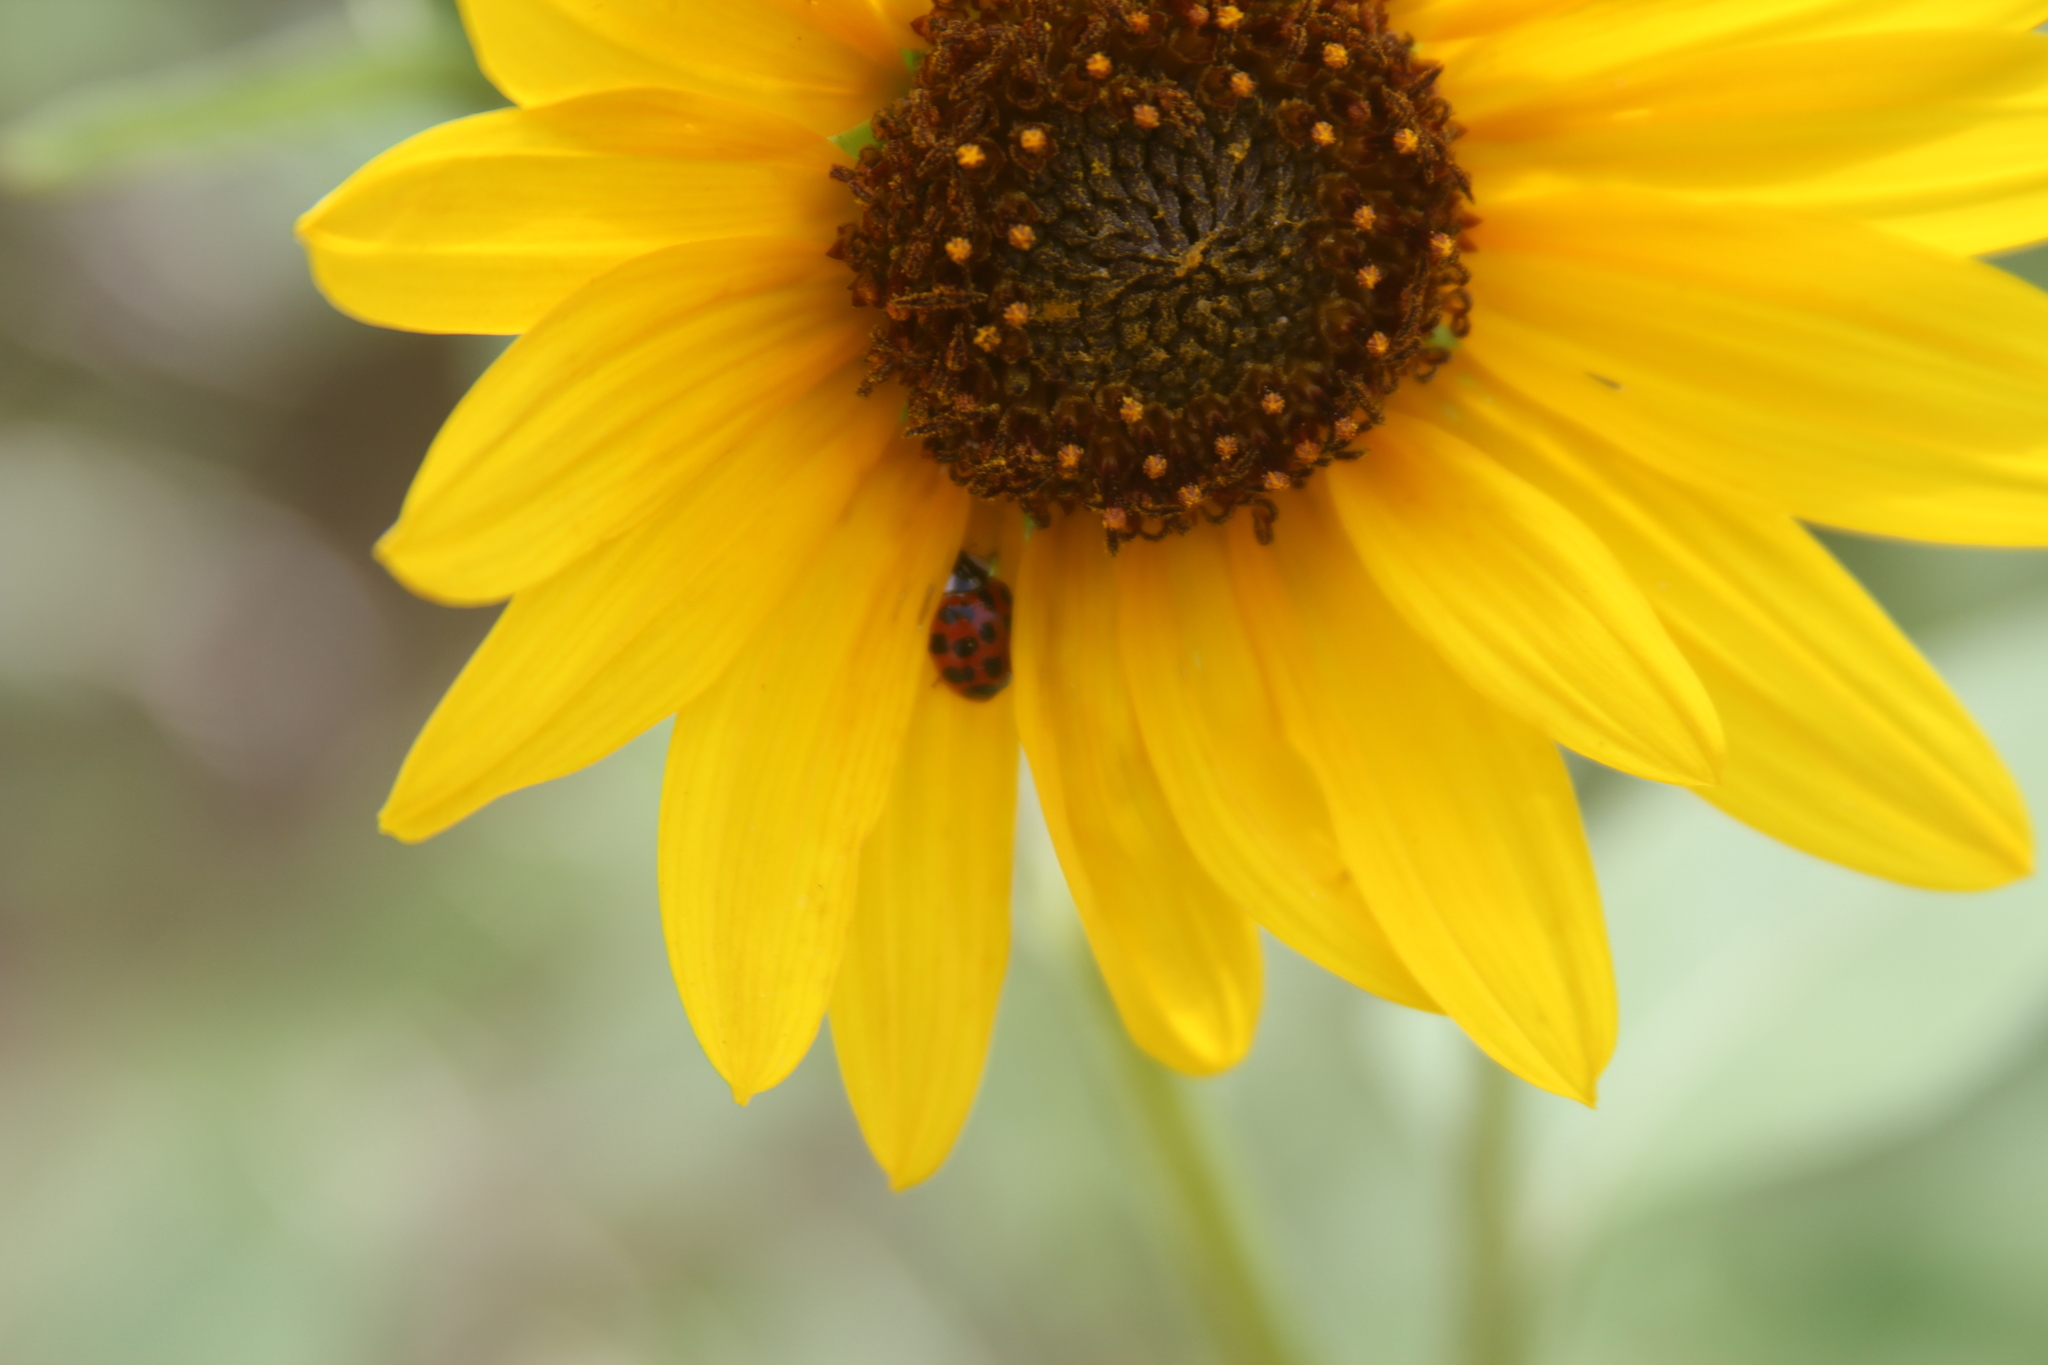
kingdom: Animalia
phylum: Arthropoda
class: Insecta
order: Coleoptera
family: Coccinellidae
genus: Harmonia
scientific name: Harmonia axyridis
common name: Harlequin ladybird
